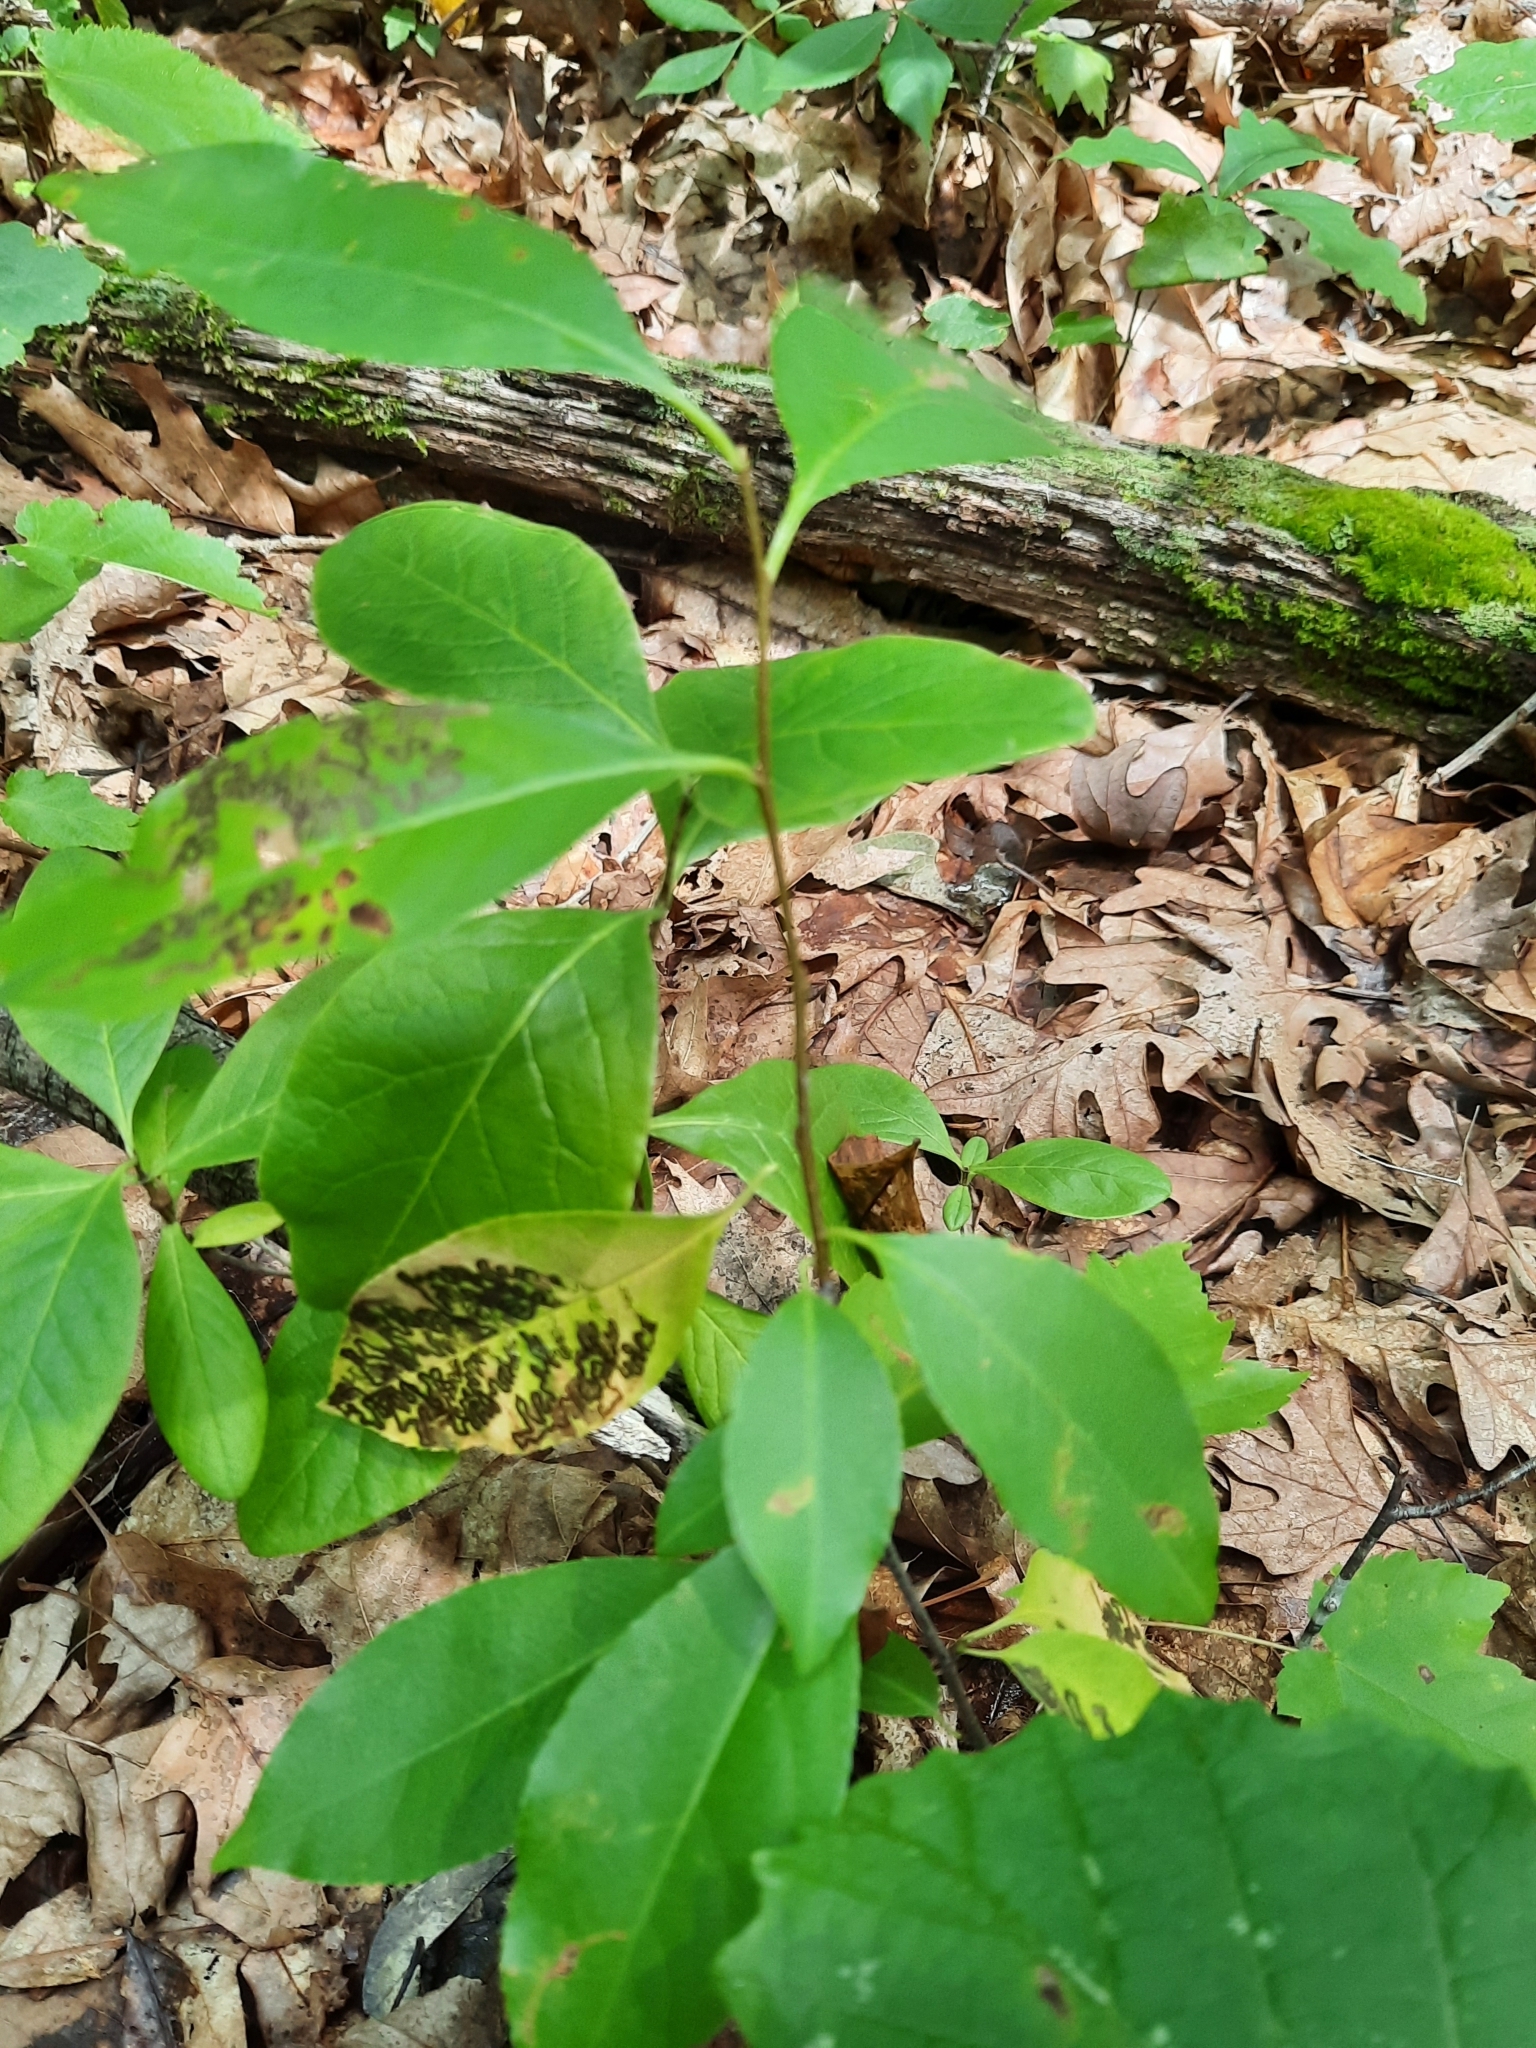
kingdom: Plantae
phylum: Tracheophyta
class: Magnoliopsida
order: Rosales
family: Rosaceae
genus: Prunus
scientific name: Prunus serotina
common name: Black cherry
